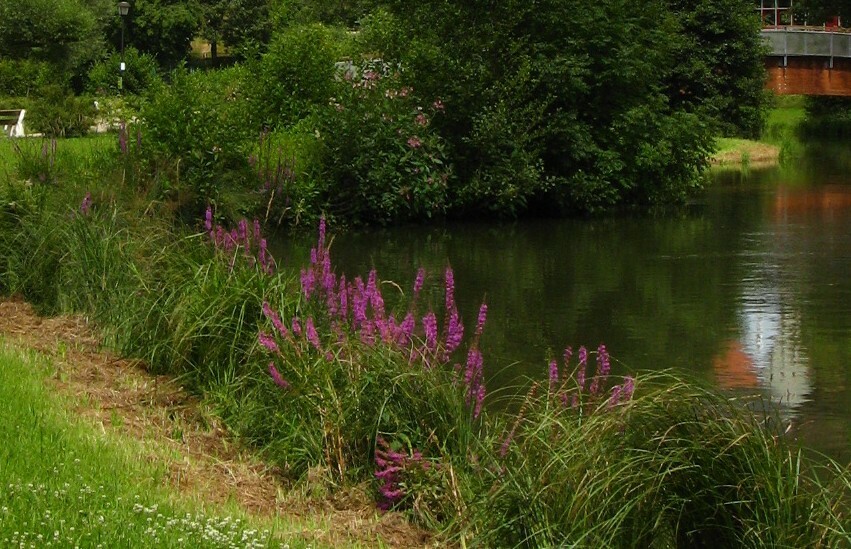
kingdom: Plantae
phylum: Tracheophyta
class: Magnoliopsida
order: Myrtales
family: Lythraceae
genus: Lythrum
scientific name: Lythrum salicaria
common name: Purple loosestrife
